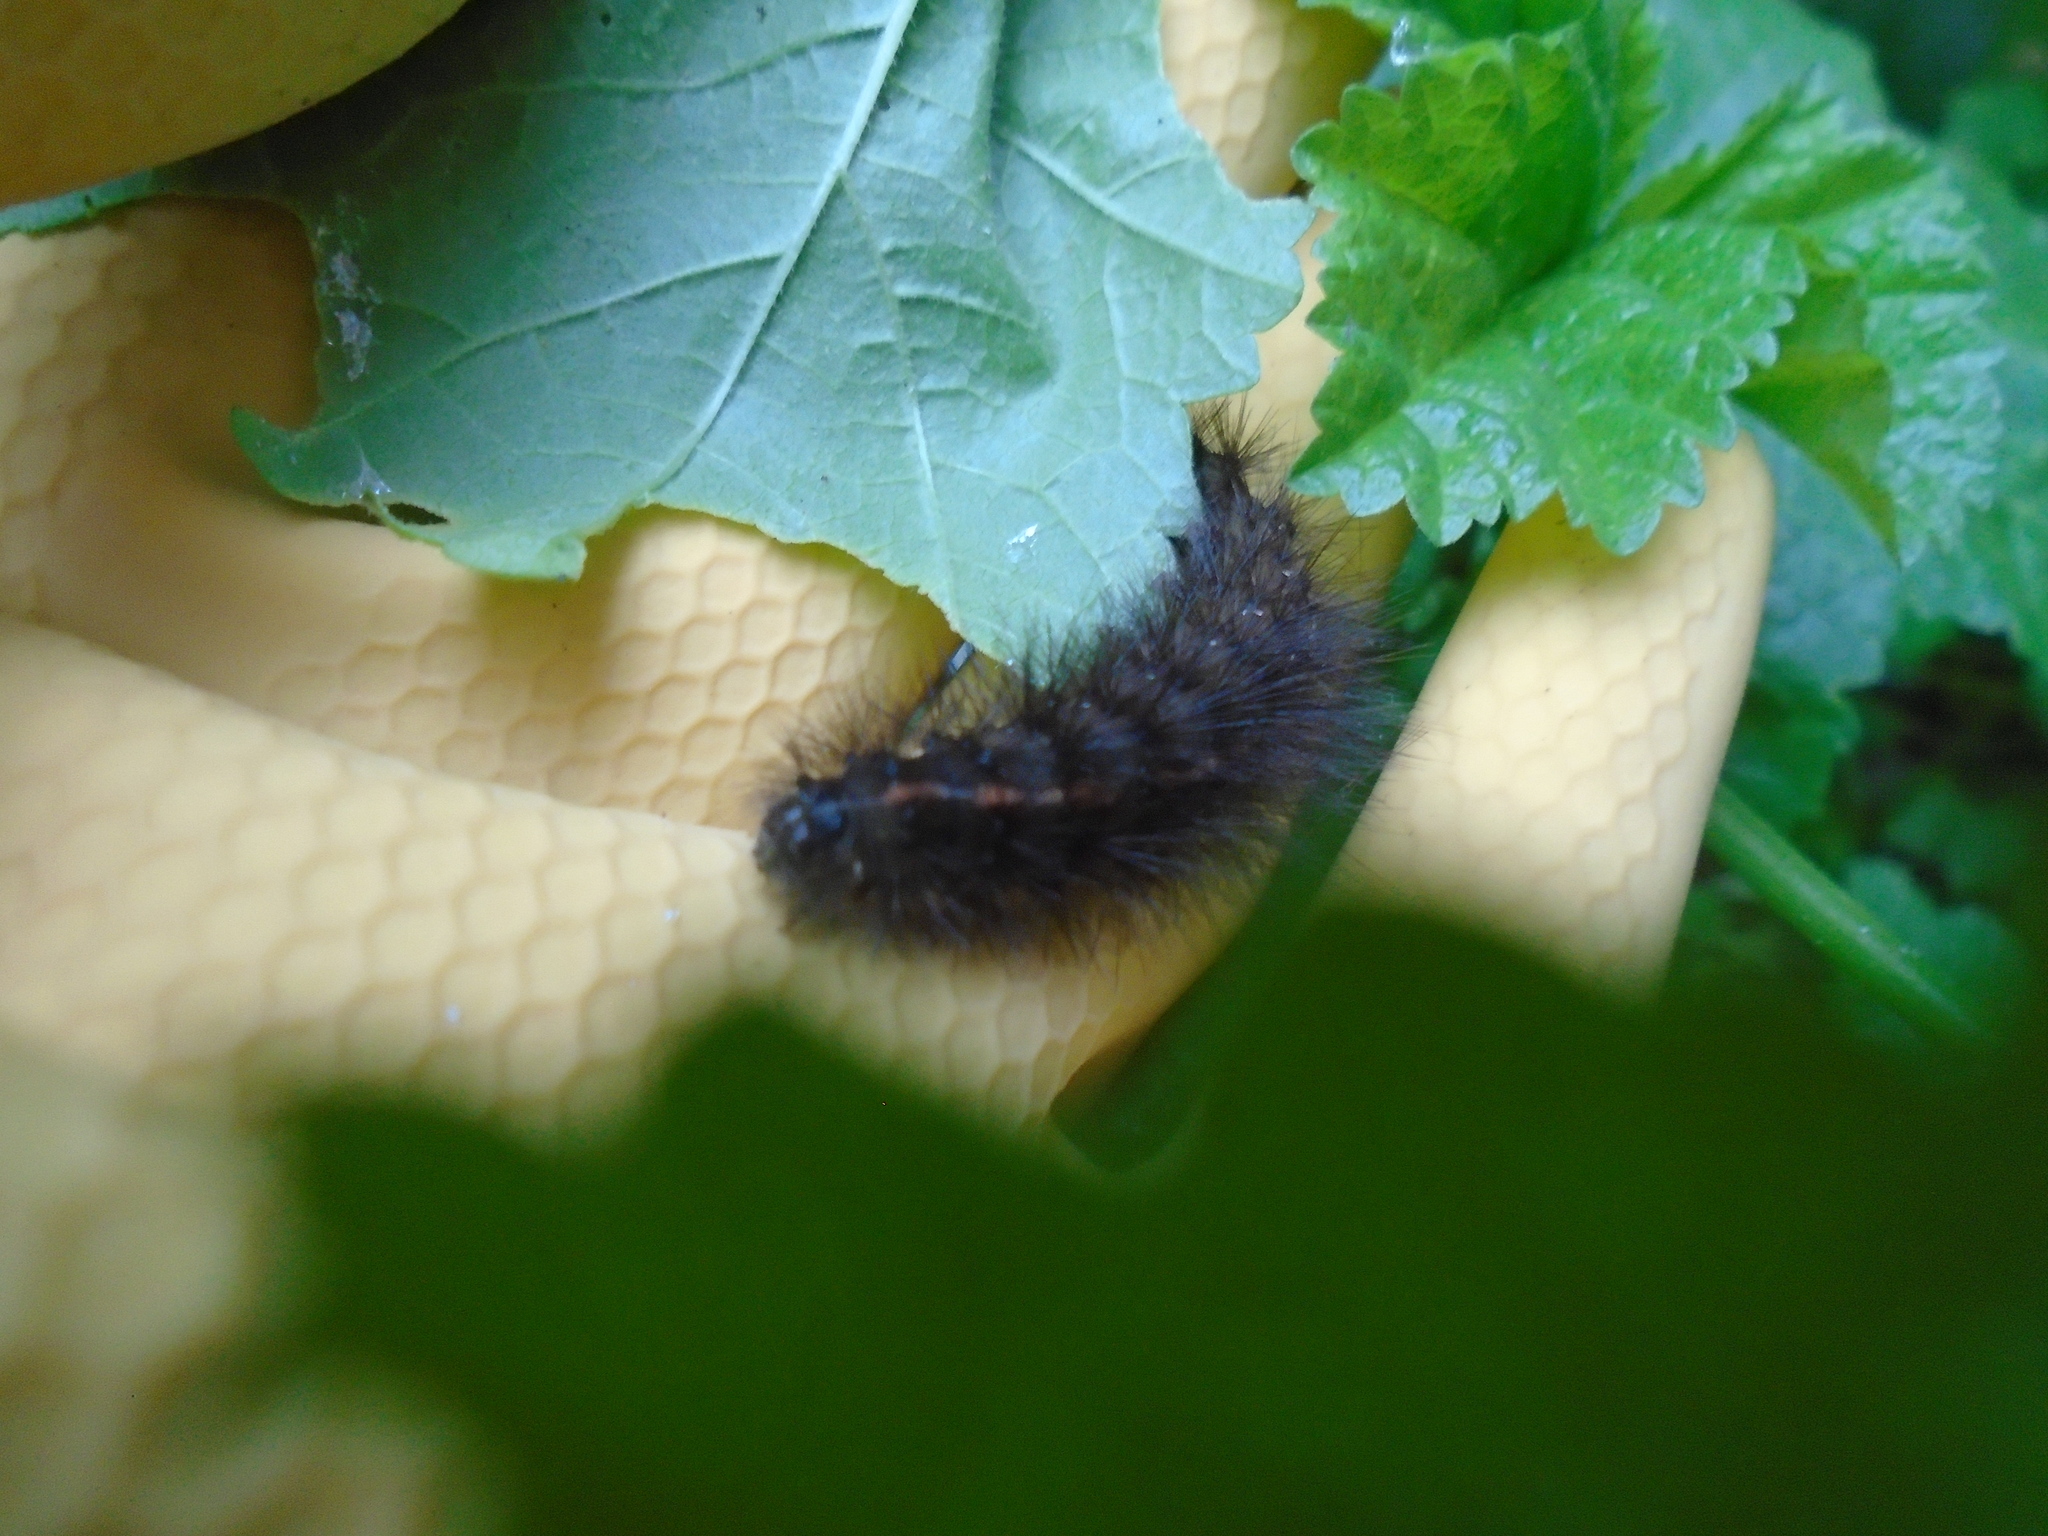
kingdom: Animalia
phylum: Arthropoda
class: Insecta
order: Lepidoptera
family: Erebidae
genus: Spilosoma
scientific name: Spilosoma lubricipeda
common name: White ermine
